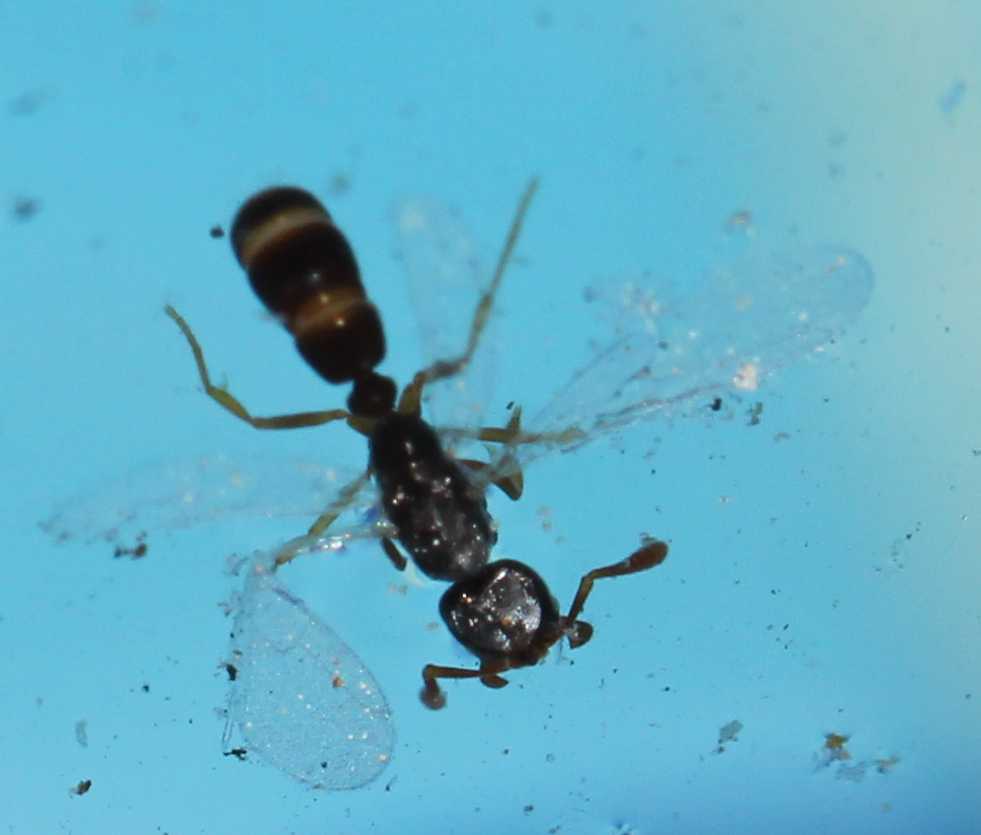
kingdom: Animalia
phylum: Arthropoda
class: Insecta
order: Hymenoptera
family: Formicidae
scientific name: Formicidae
